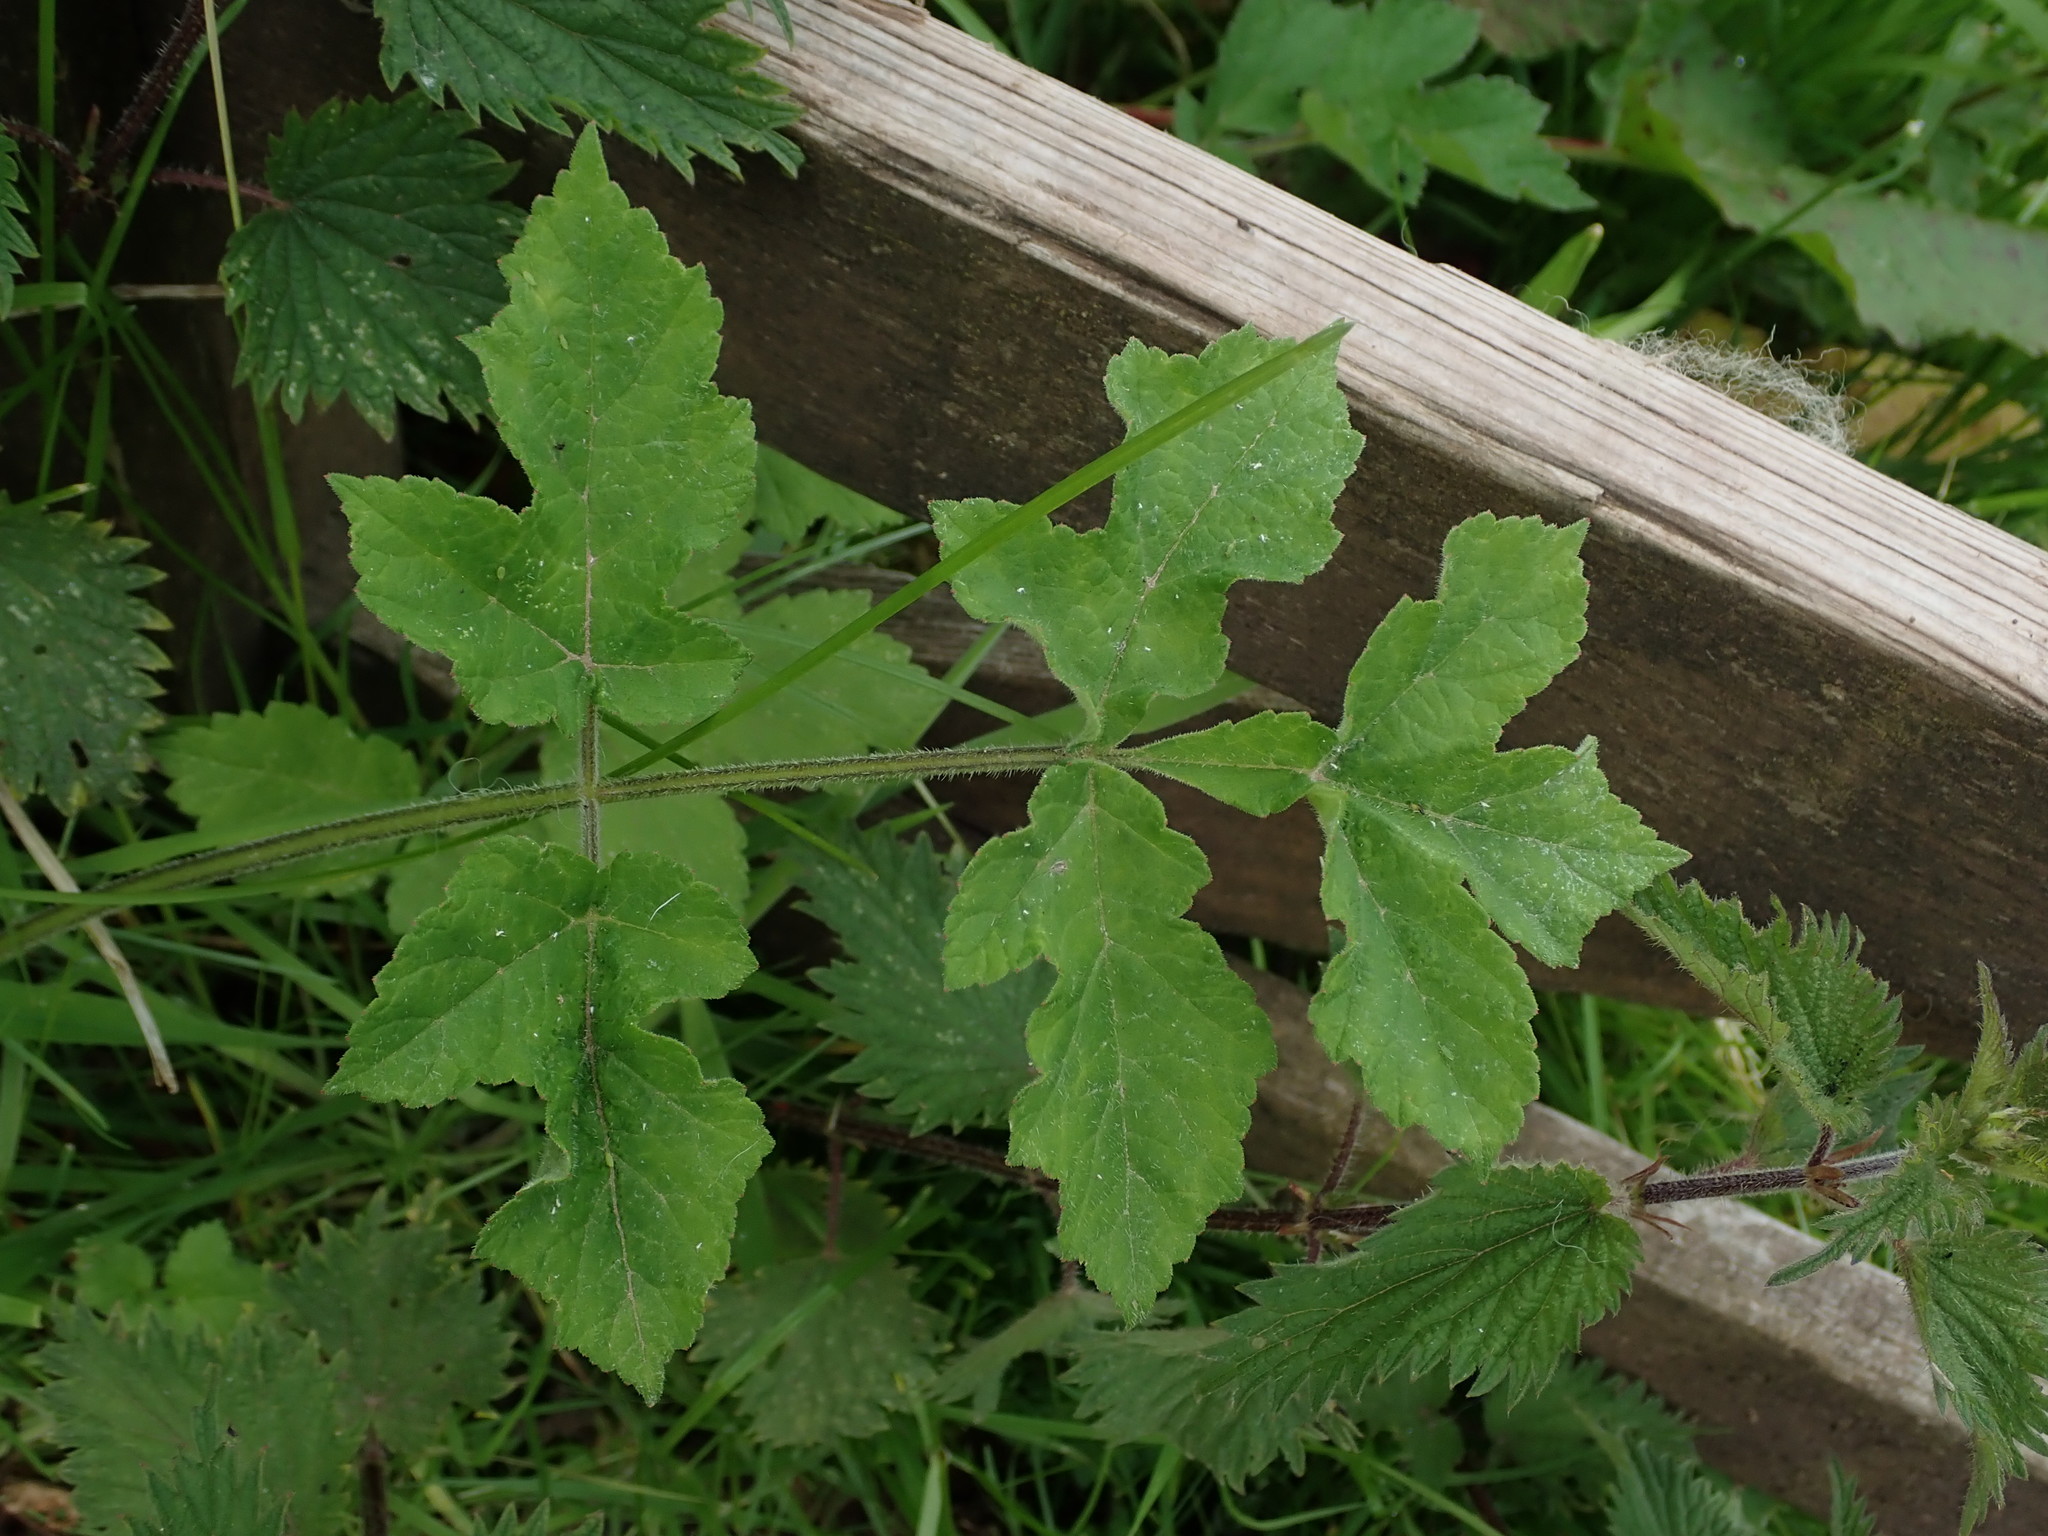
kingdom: Plantae
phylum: Tracheophyta
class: Magnoliopsida
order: Apiales
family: Apiaceae
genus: Heracleum
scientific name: Heracleum sphondylium
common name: Hogweed
